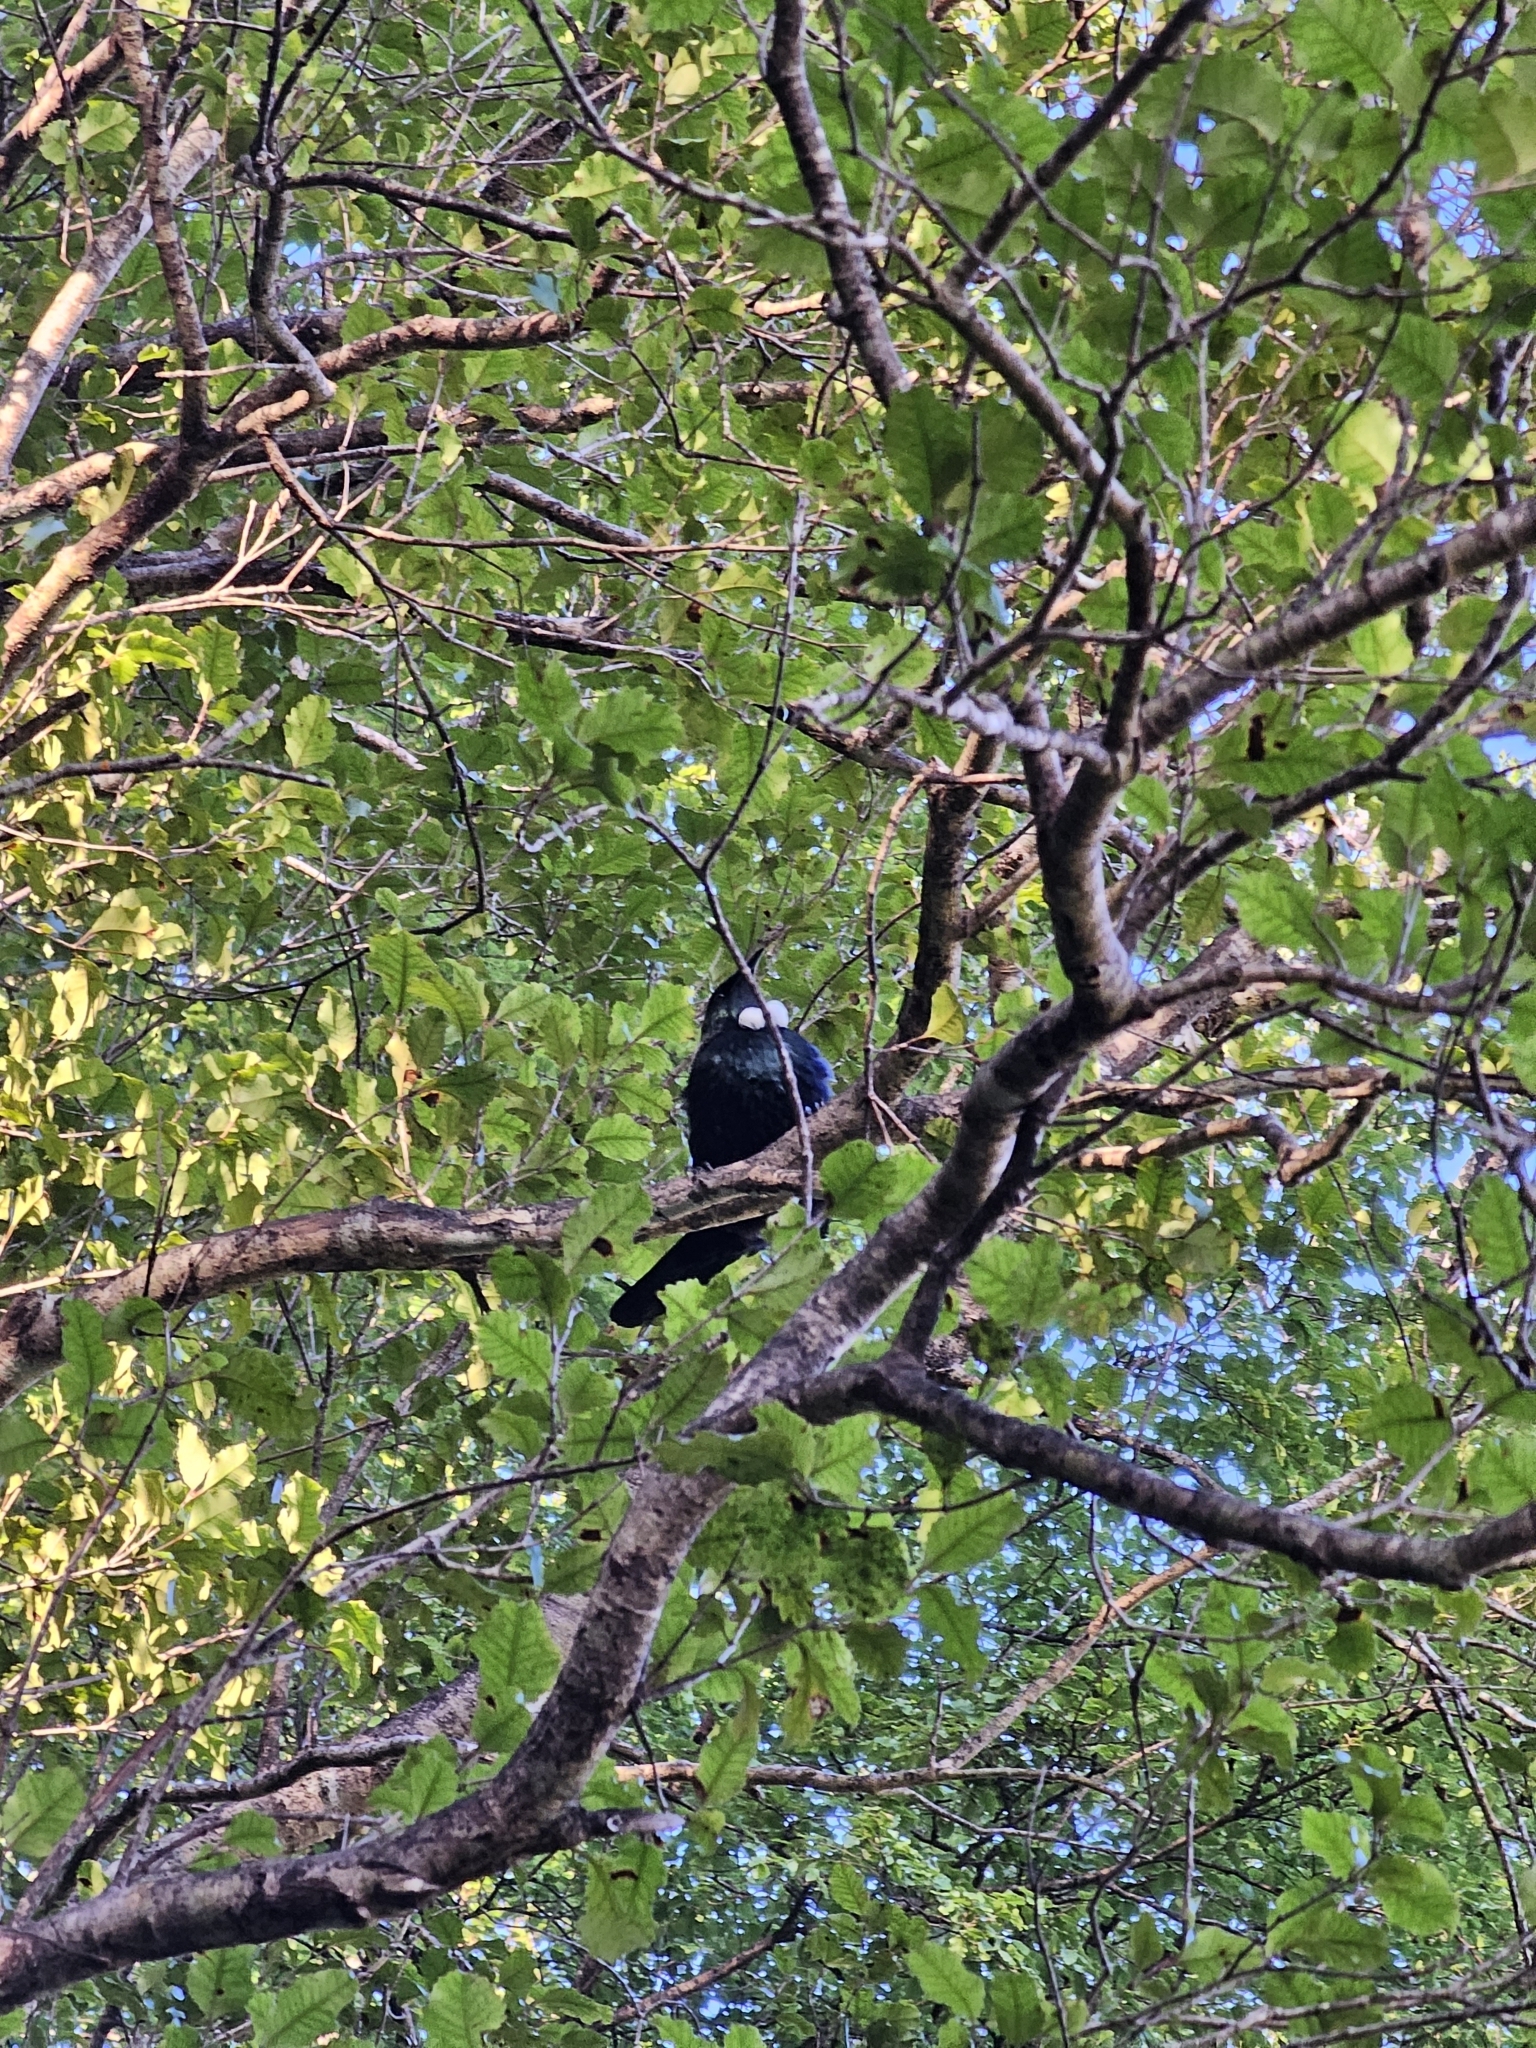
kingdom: Animalia
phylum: Chordata
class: Aves
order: Passeriformes
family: Meliphagidae
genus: Prosthemadera
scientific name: Prosthemadera novaeseelandiae
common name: Tui
